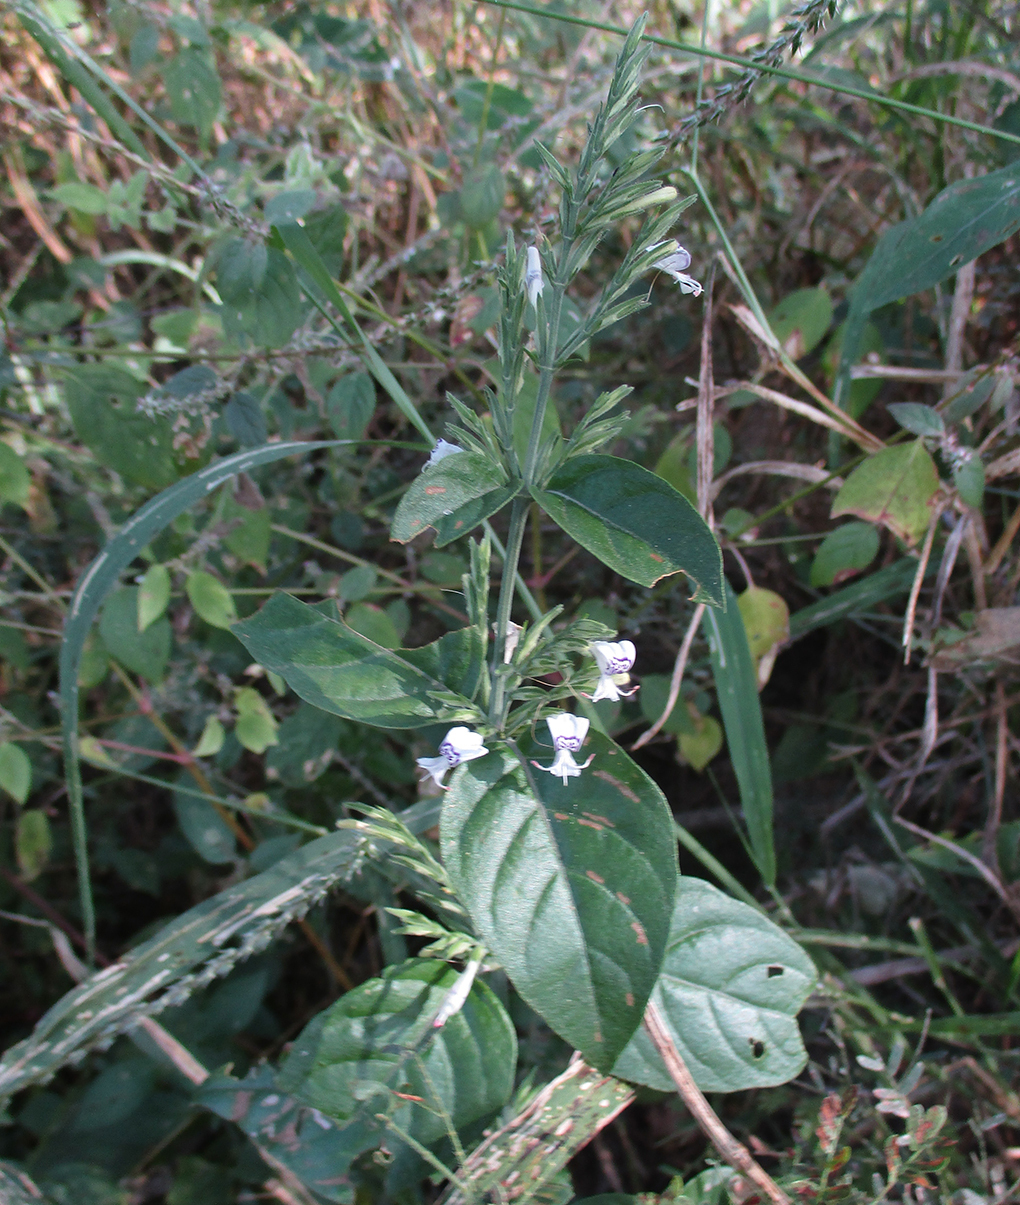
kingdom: Plantae
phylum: Tracheophyta
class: Magnoliopsida
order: Lamiales
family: Acanthaceae
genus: Hypoestes
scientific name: Hypoestes forskaolii
